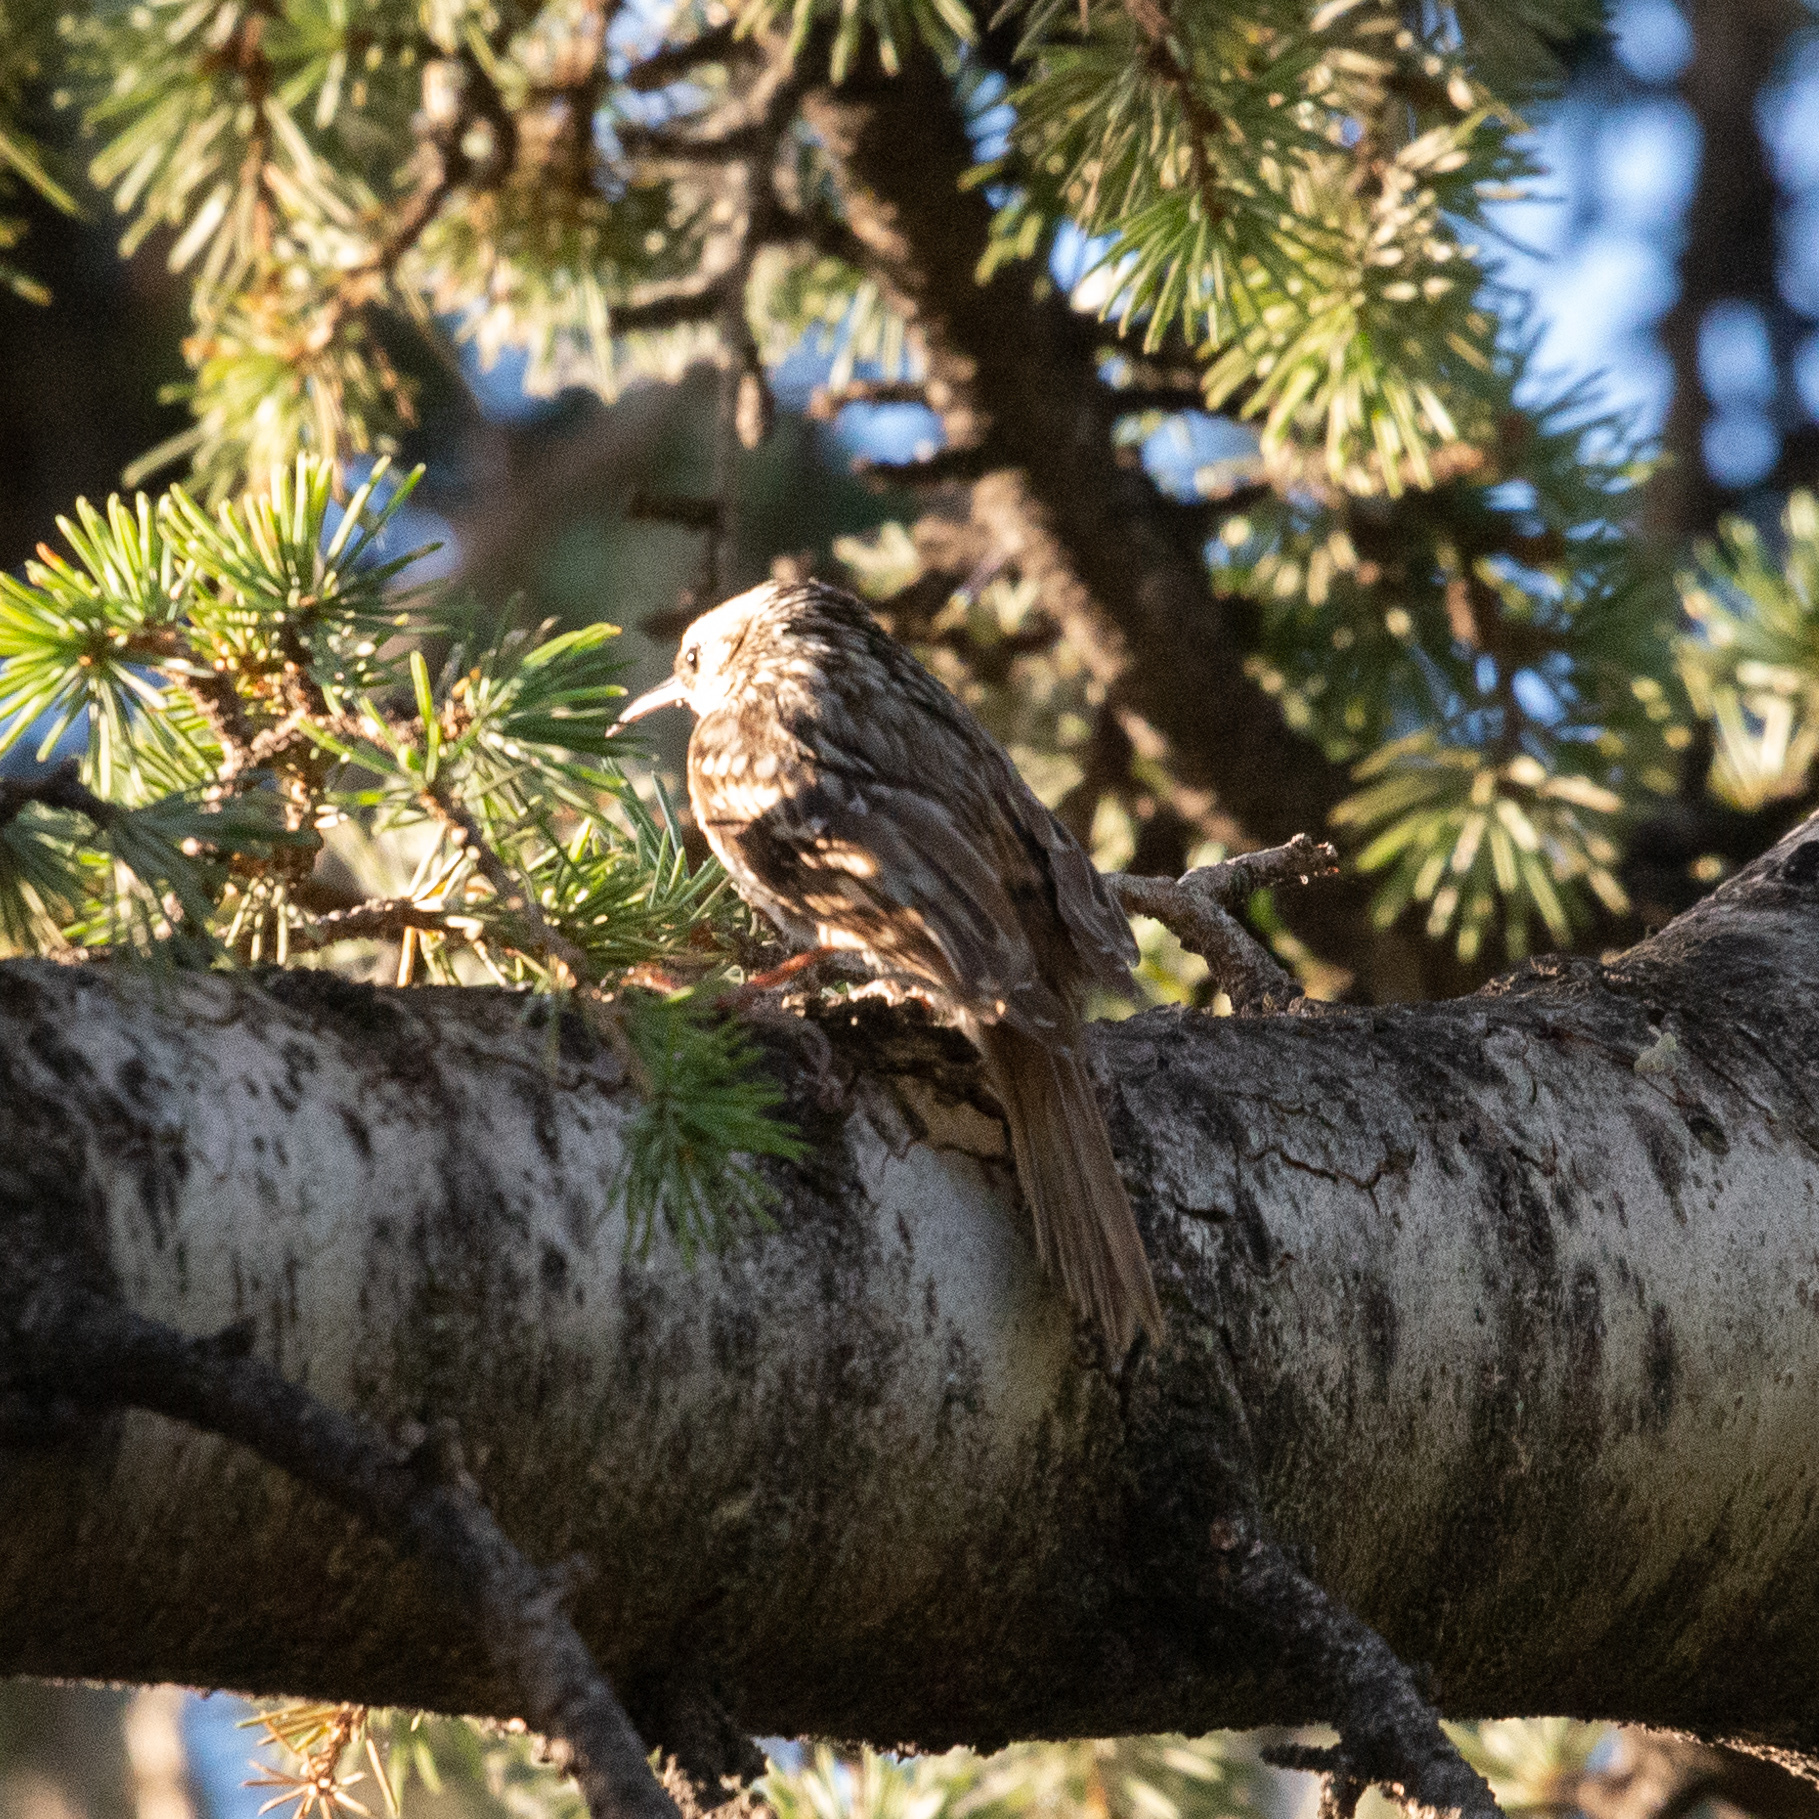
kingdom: Animalia
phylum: Chordata
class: Aves
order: Passeriformes
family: Certhiidae
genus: Certhia
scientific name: Certhia brachydactyla
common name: Short-toed treecreeper
